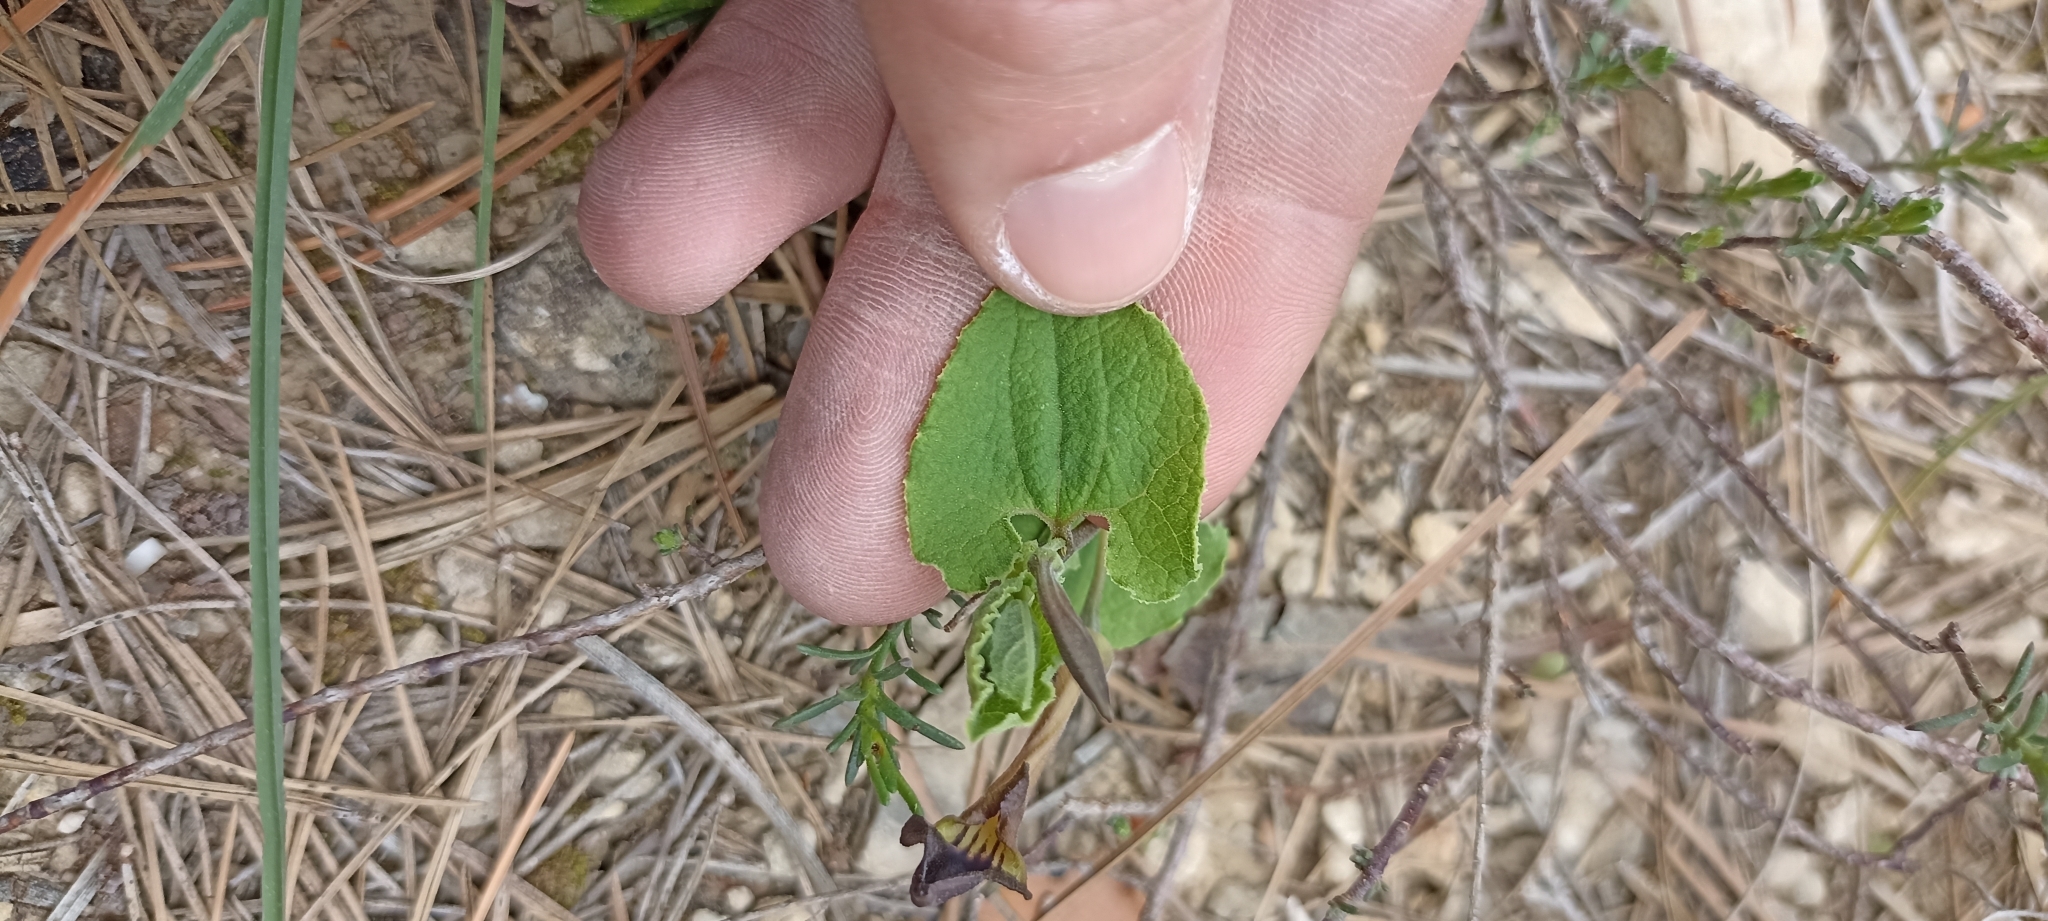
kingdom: Plantae
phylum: Tracheophyta
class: Magnoliopsida
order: Piperales
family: Aristolochiaceae
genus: Aristolochia
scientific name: Aristolochia pistolochia
